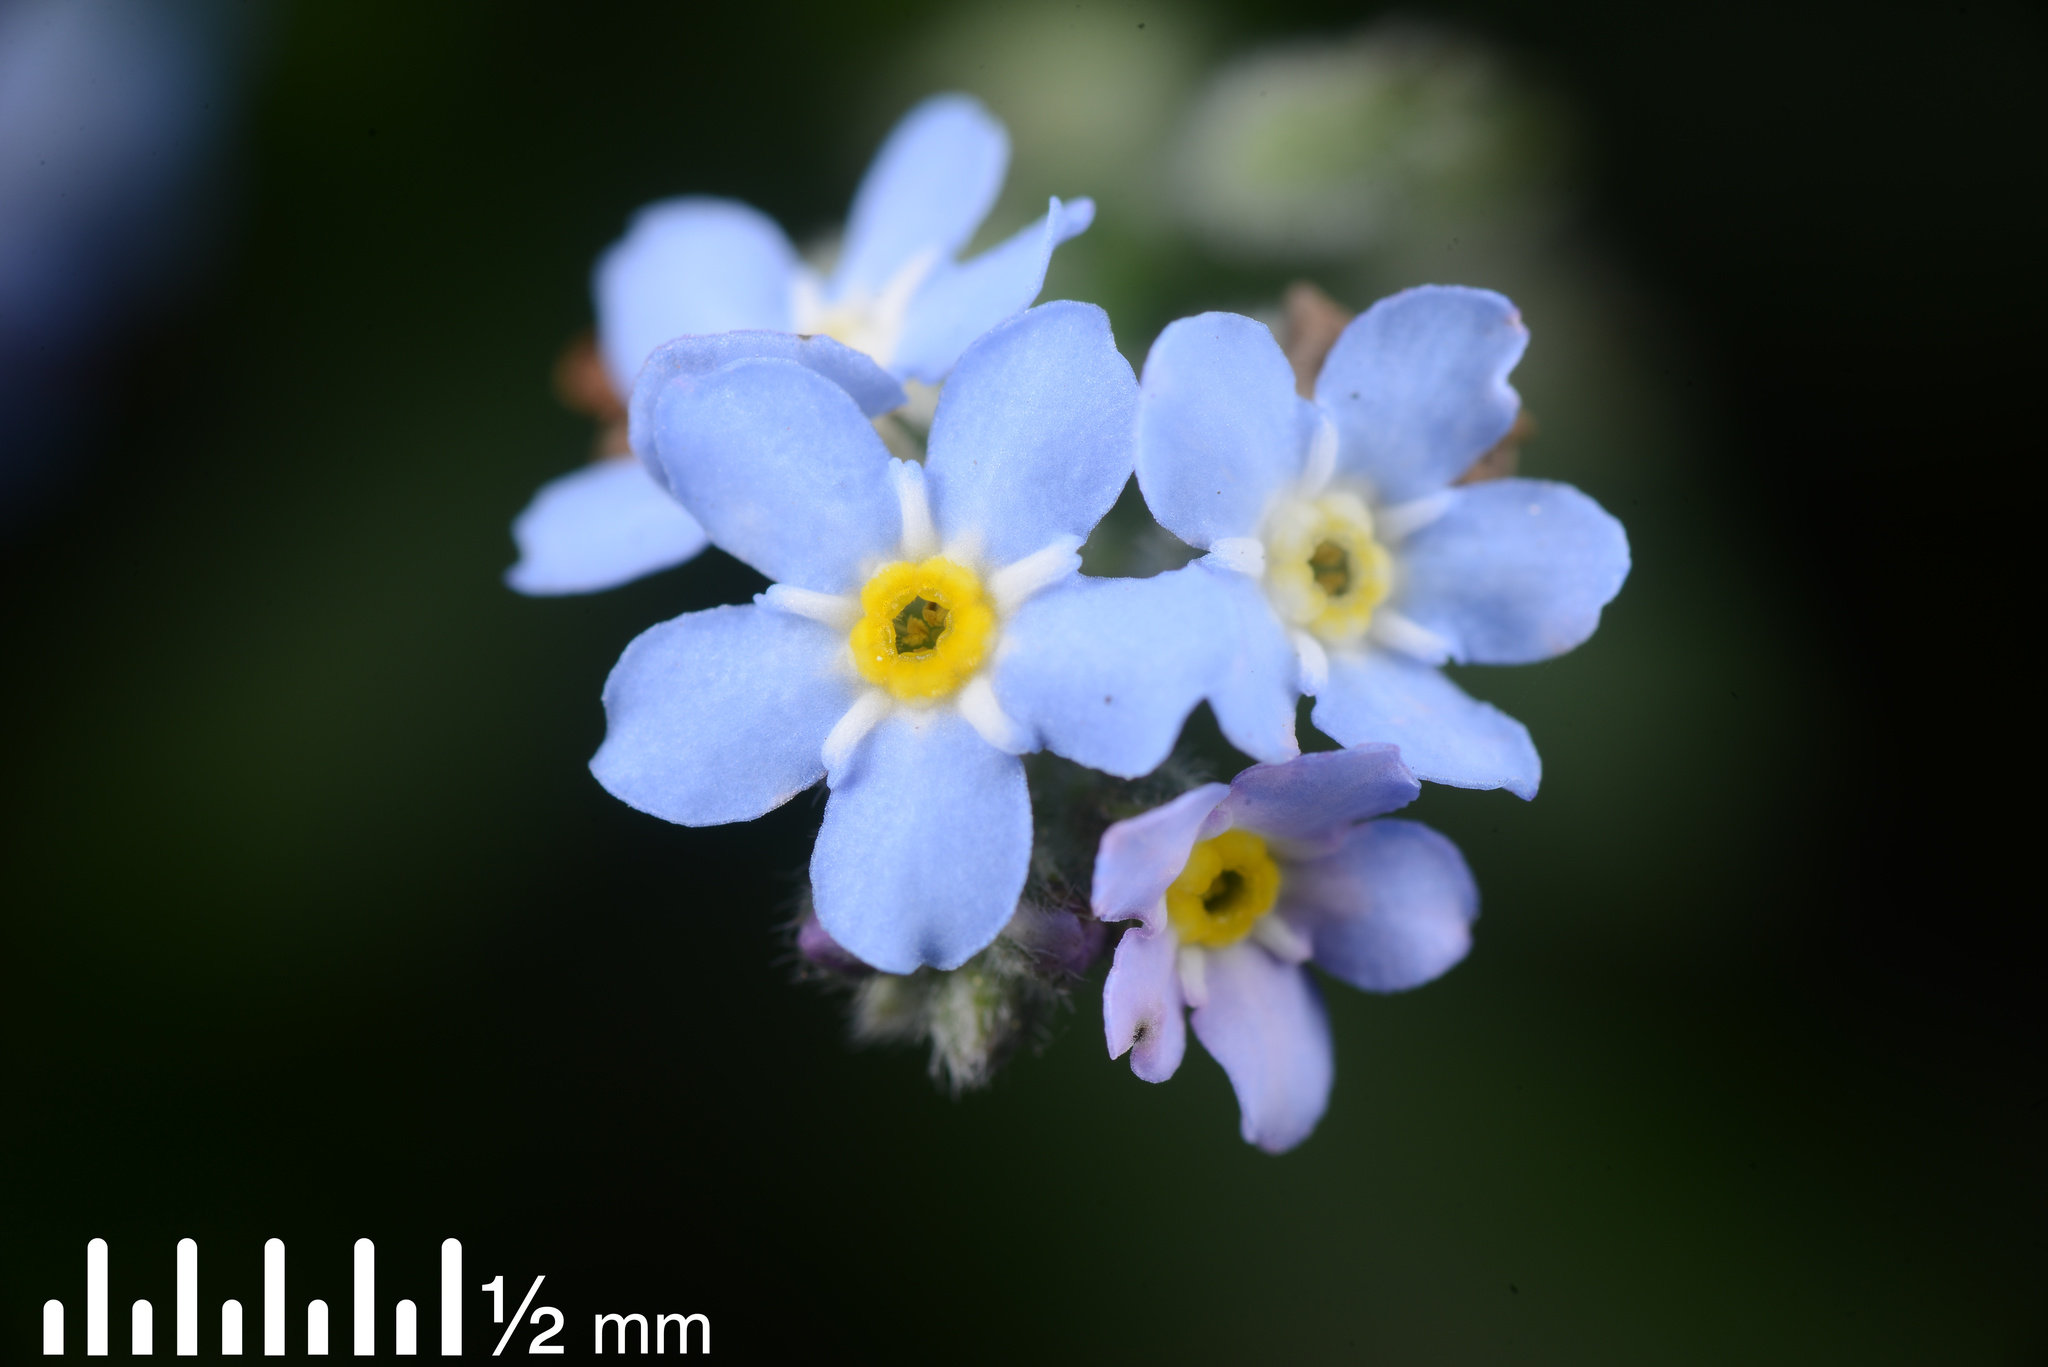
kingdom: Plantae
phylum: Tracheophyta
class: Magnoliopsida
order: Boraginales
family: Boraginaceae
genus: Myosotis
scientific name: Myosotis sylvatica
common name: Wood forget-me-not
